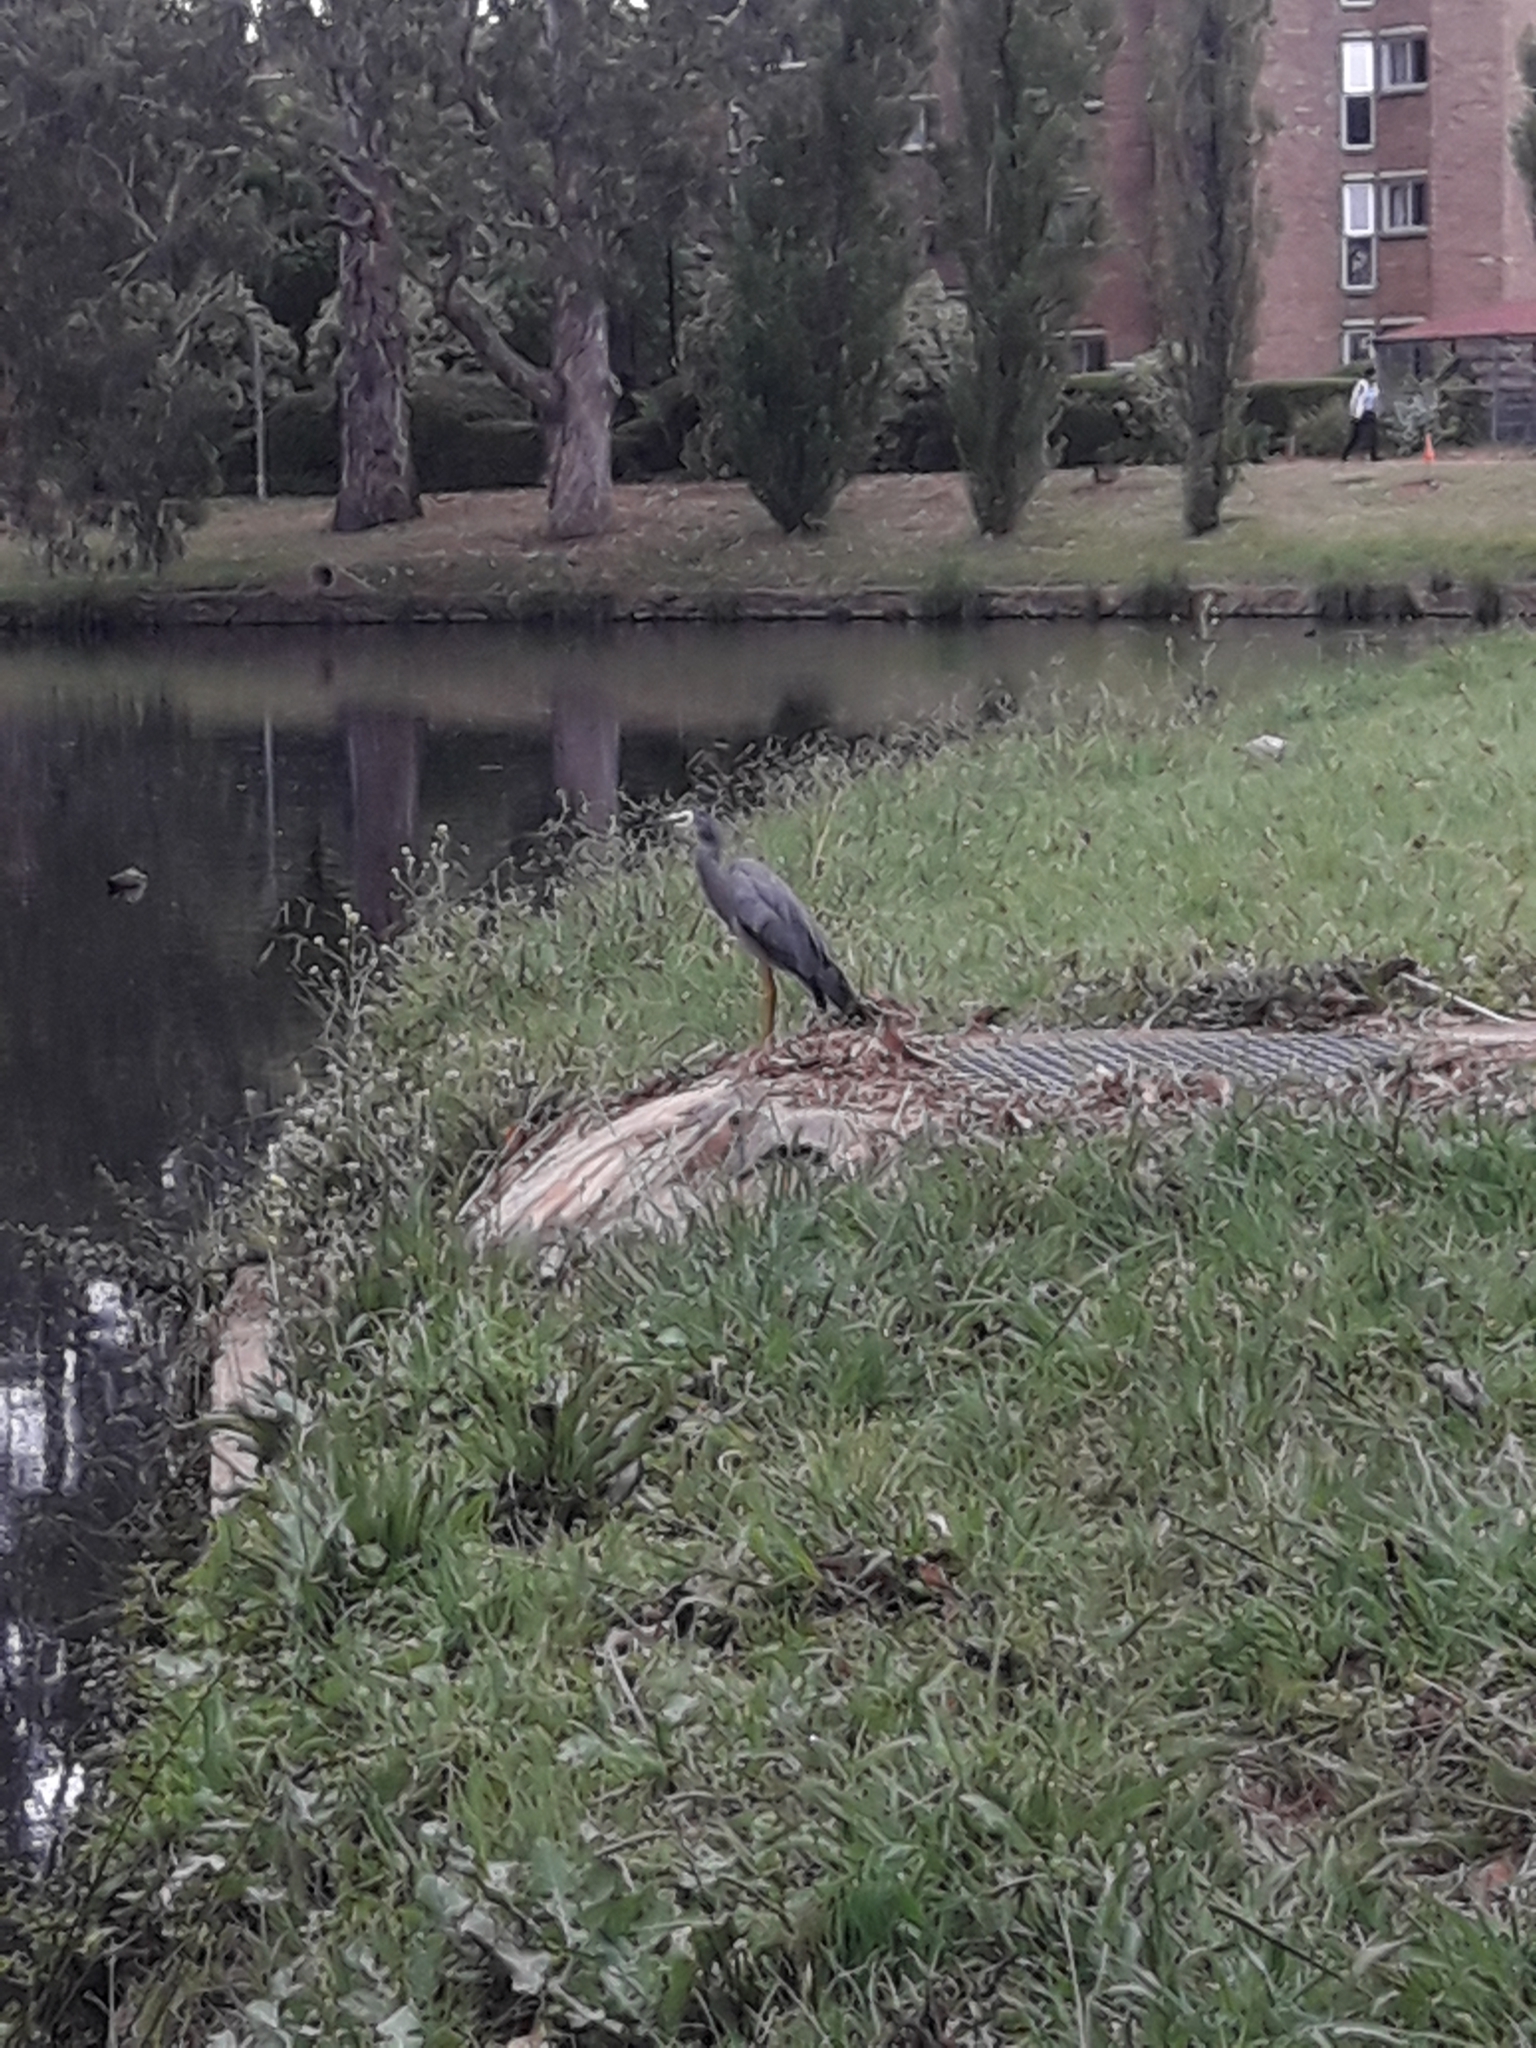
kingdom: Animalia
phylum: Chordata
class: Aves
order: Pelecaniformes
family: Ardeidae
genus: Egretta
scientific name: Egretta novaehollandiae
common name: White-faced heron
